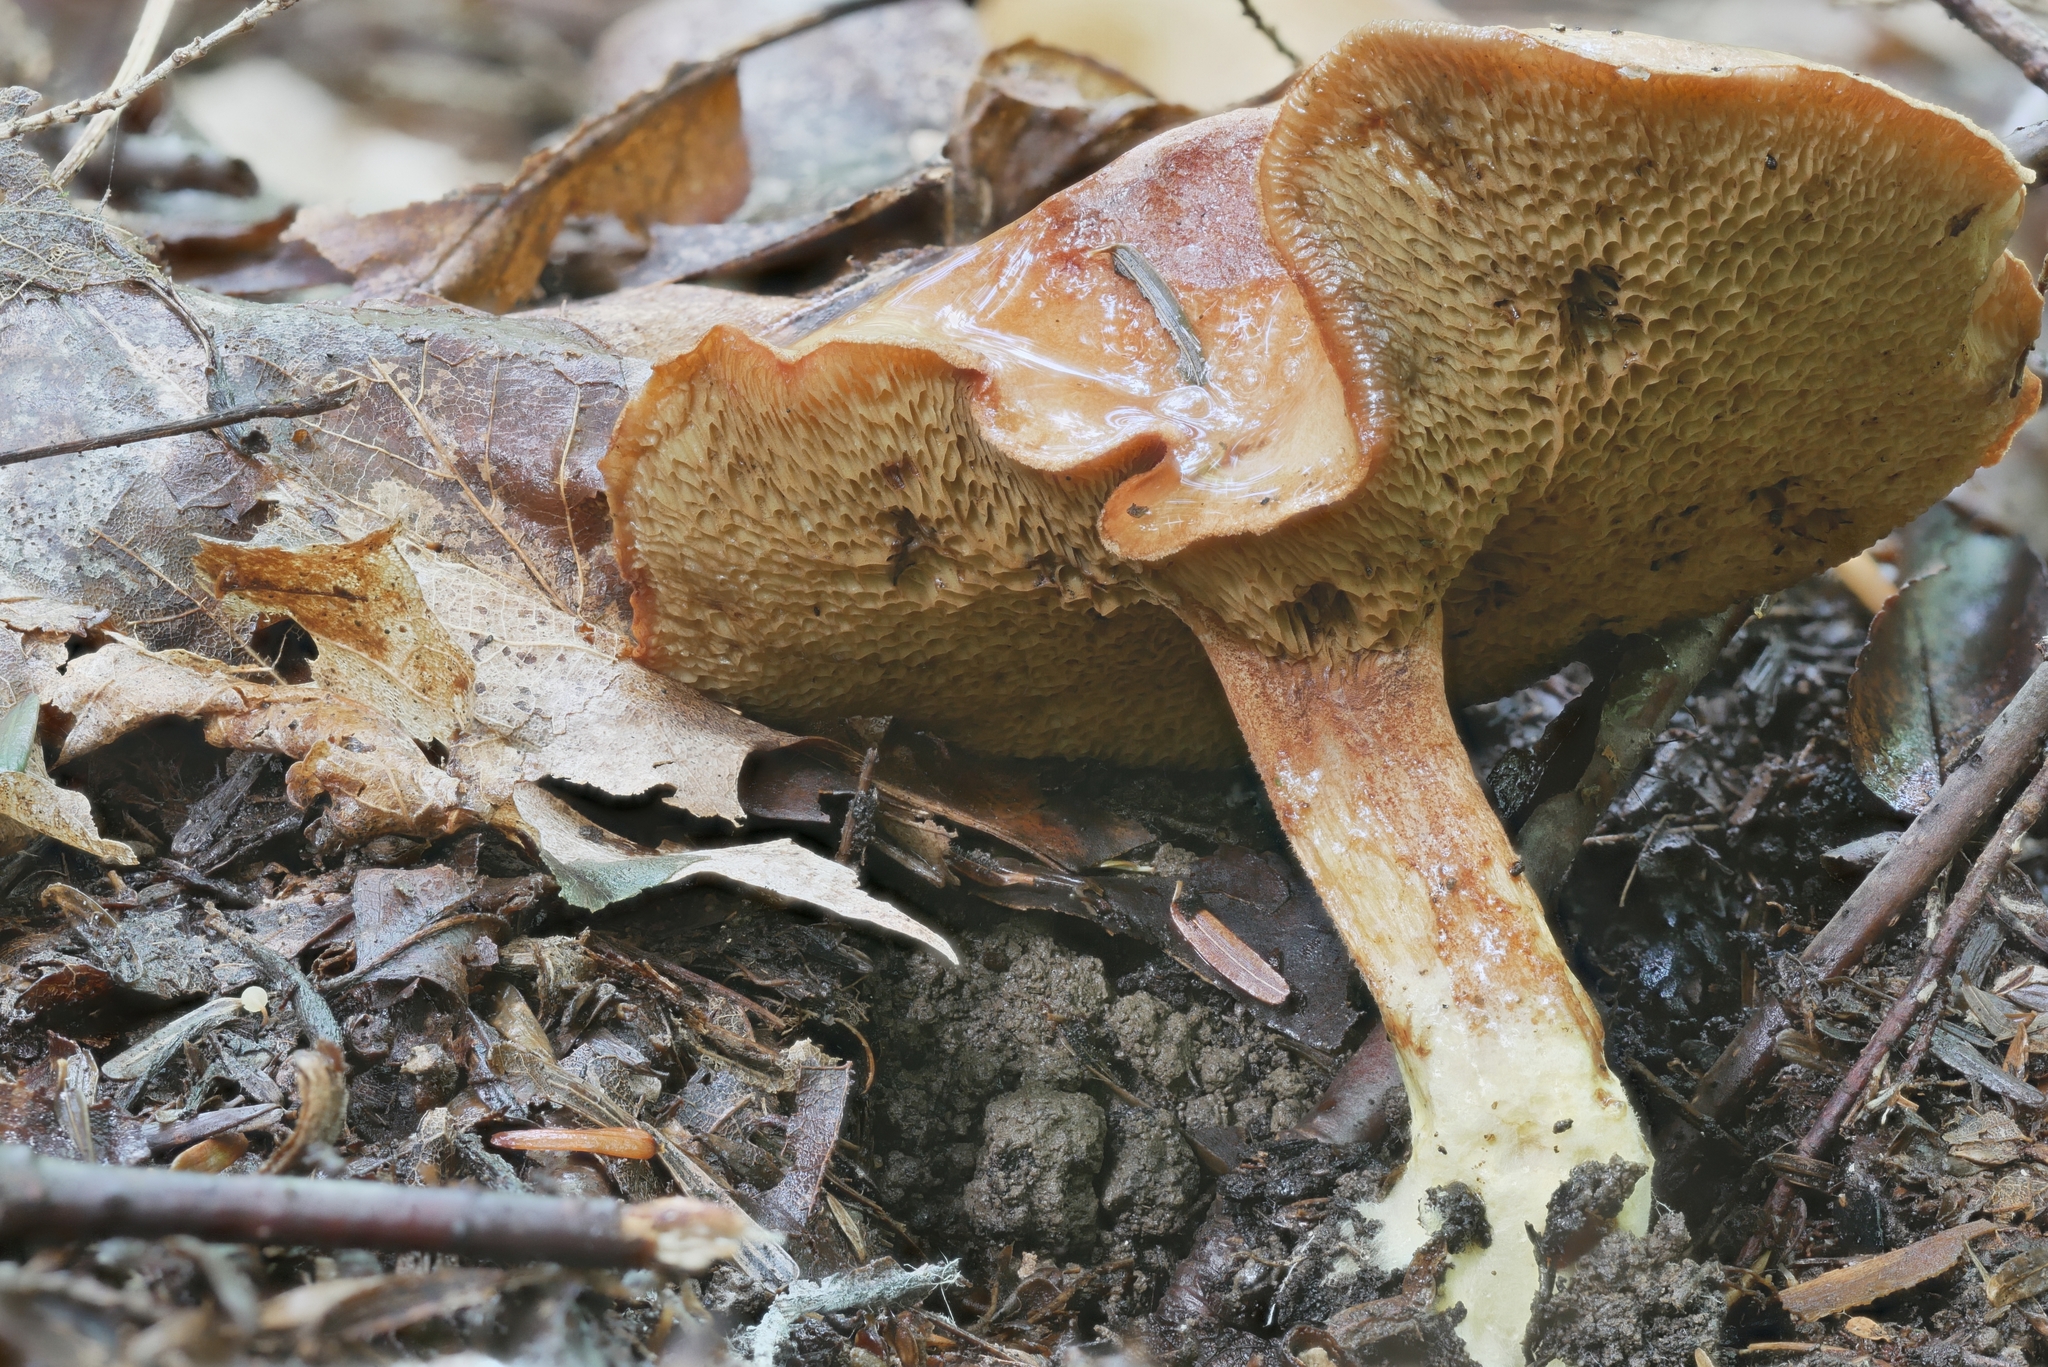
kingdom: Fungi
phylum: Basidiomycota
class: Agaricomycetes
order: Boletales
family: Boletaceae
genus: Chalciporus
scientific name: Chalciporus piperatus
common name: Peppery bolete
